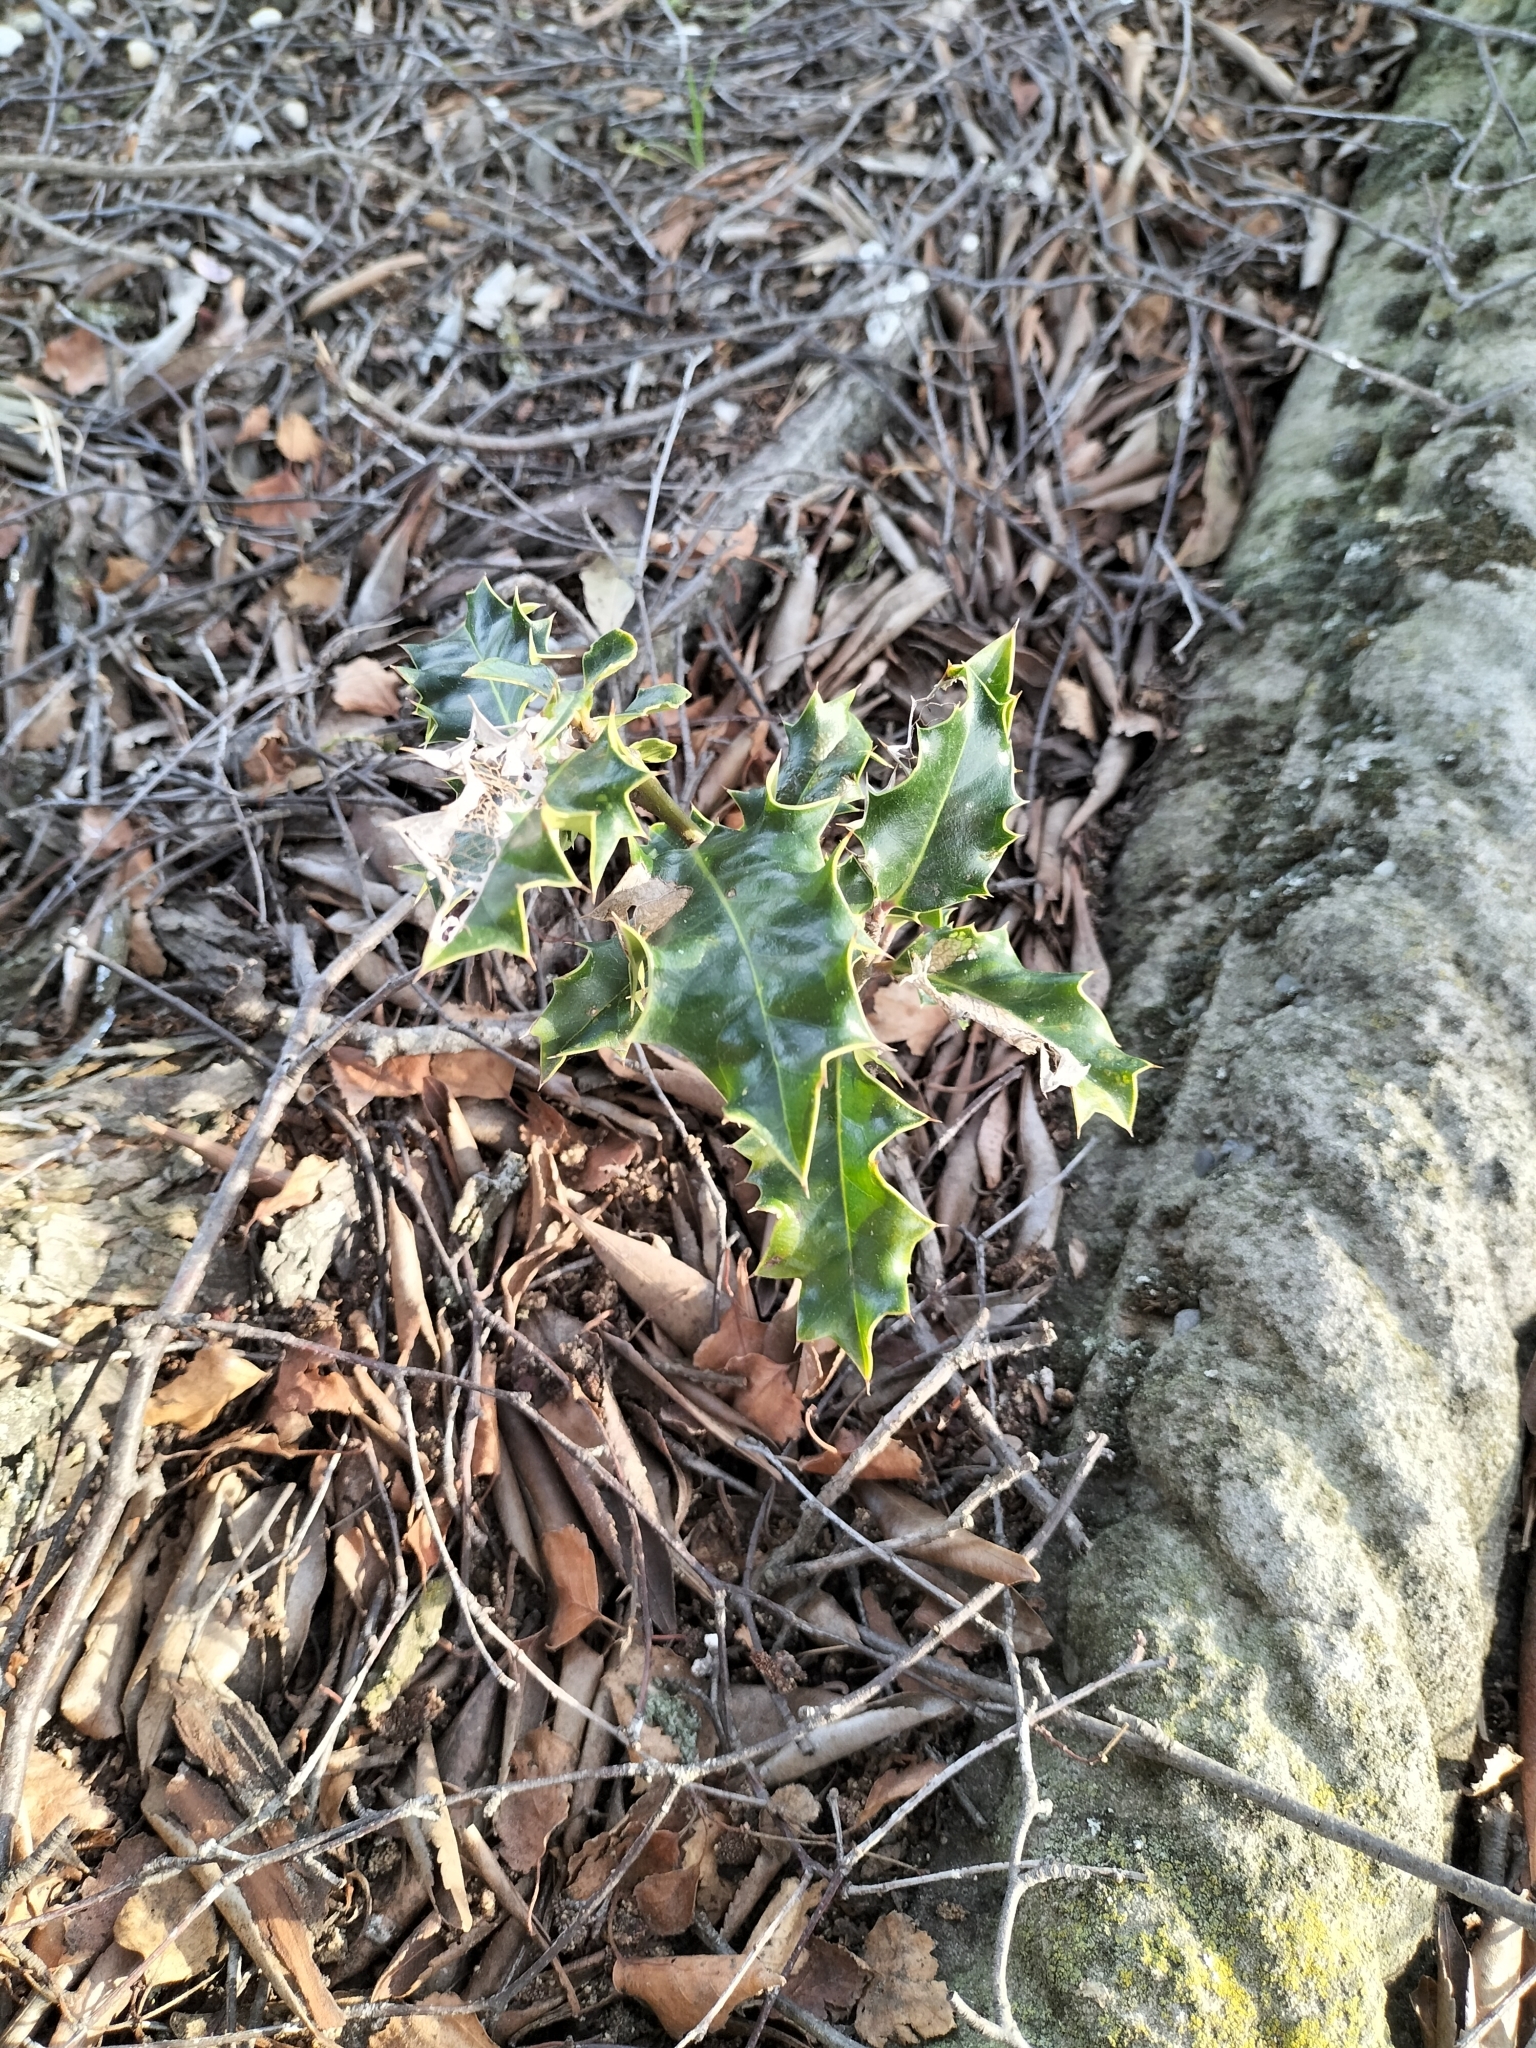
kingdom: Plantae
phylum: Tracheophyta
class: Magnoliopsida
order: Aquifoliales
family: Aquifoliaceae
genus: Ilex
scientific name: Ilex aquifolium
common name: English holly
